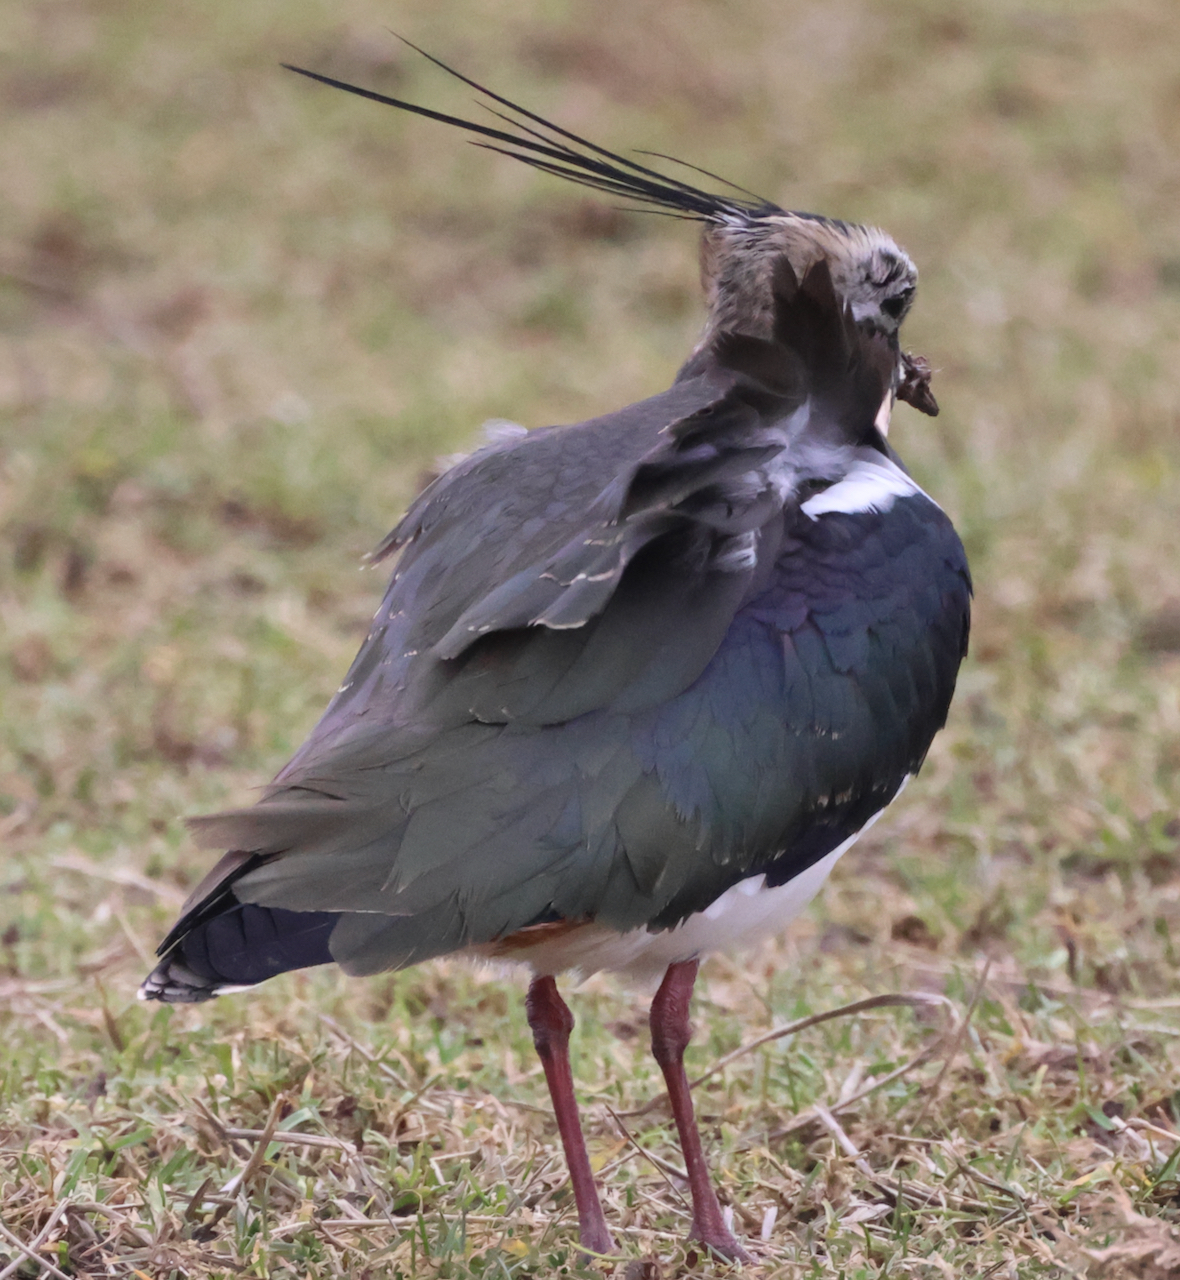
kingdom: Animalia
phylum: Chordata
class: Aves
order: Charadriiformes
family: Charadriidae
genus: Vanellus
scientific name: Vanellus vanellus
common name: Northern lapwing
